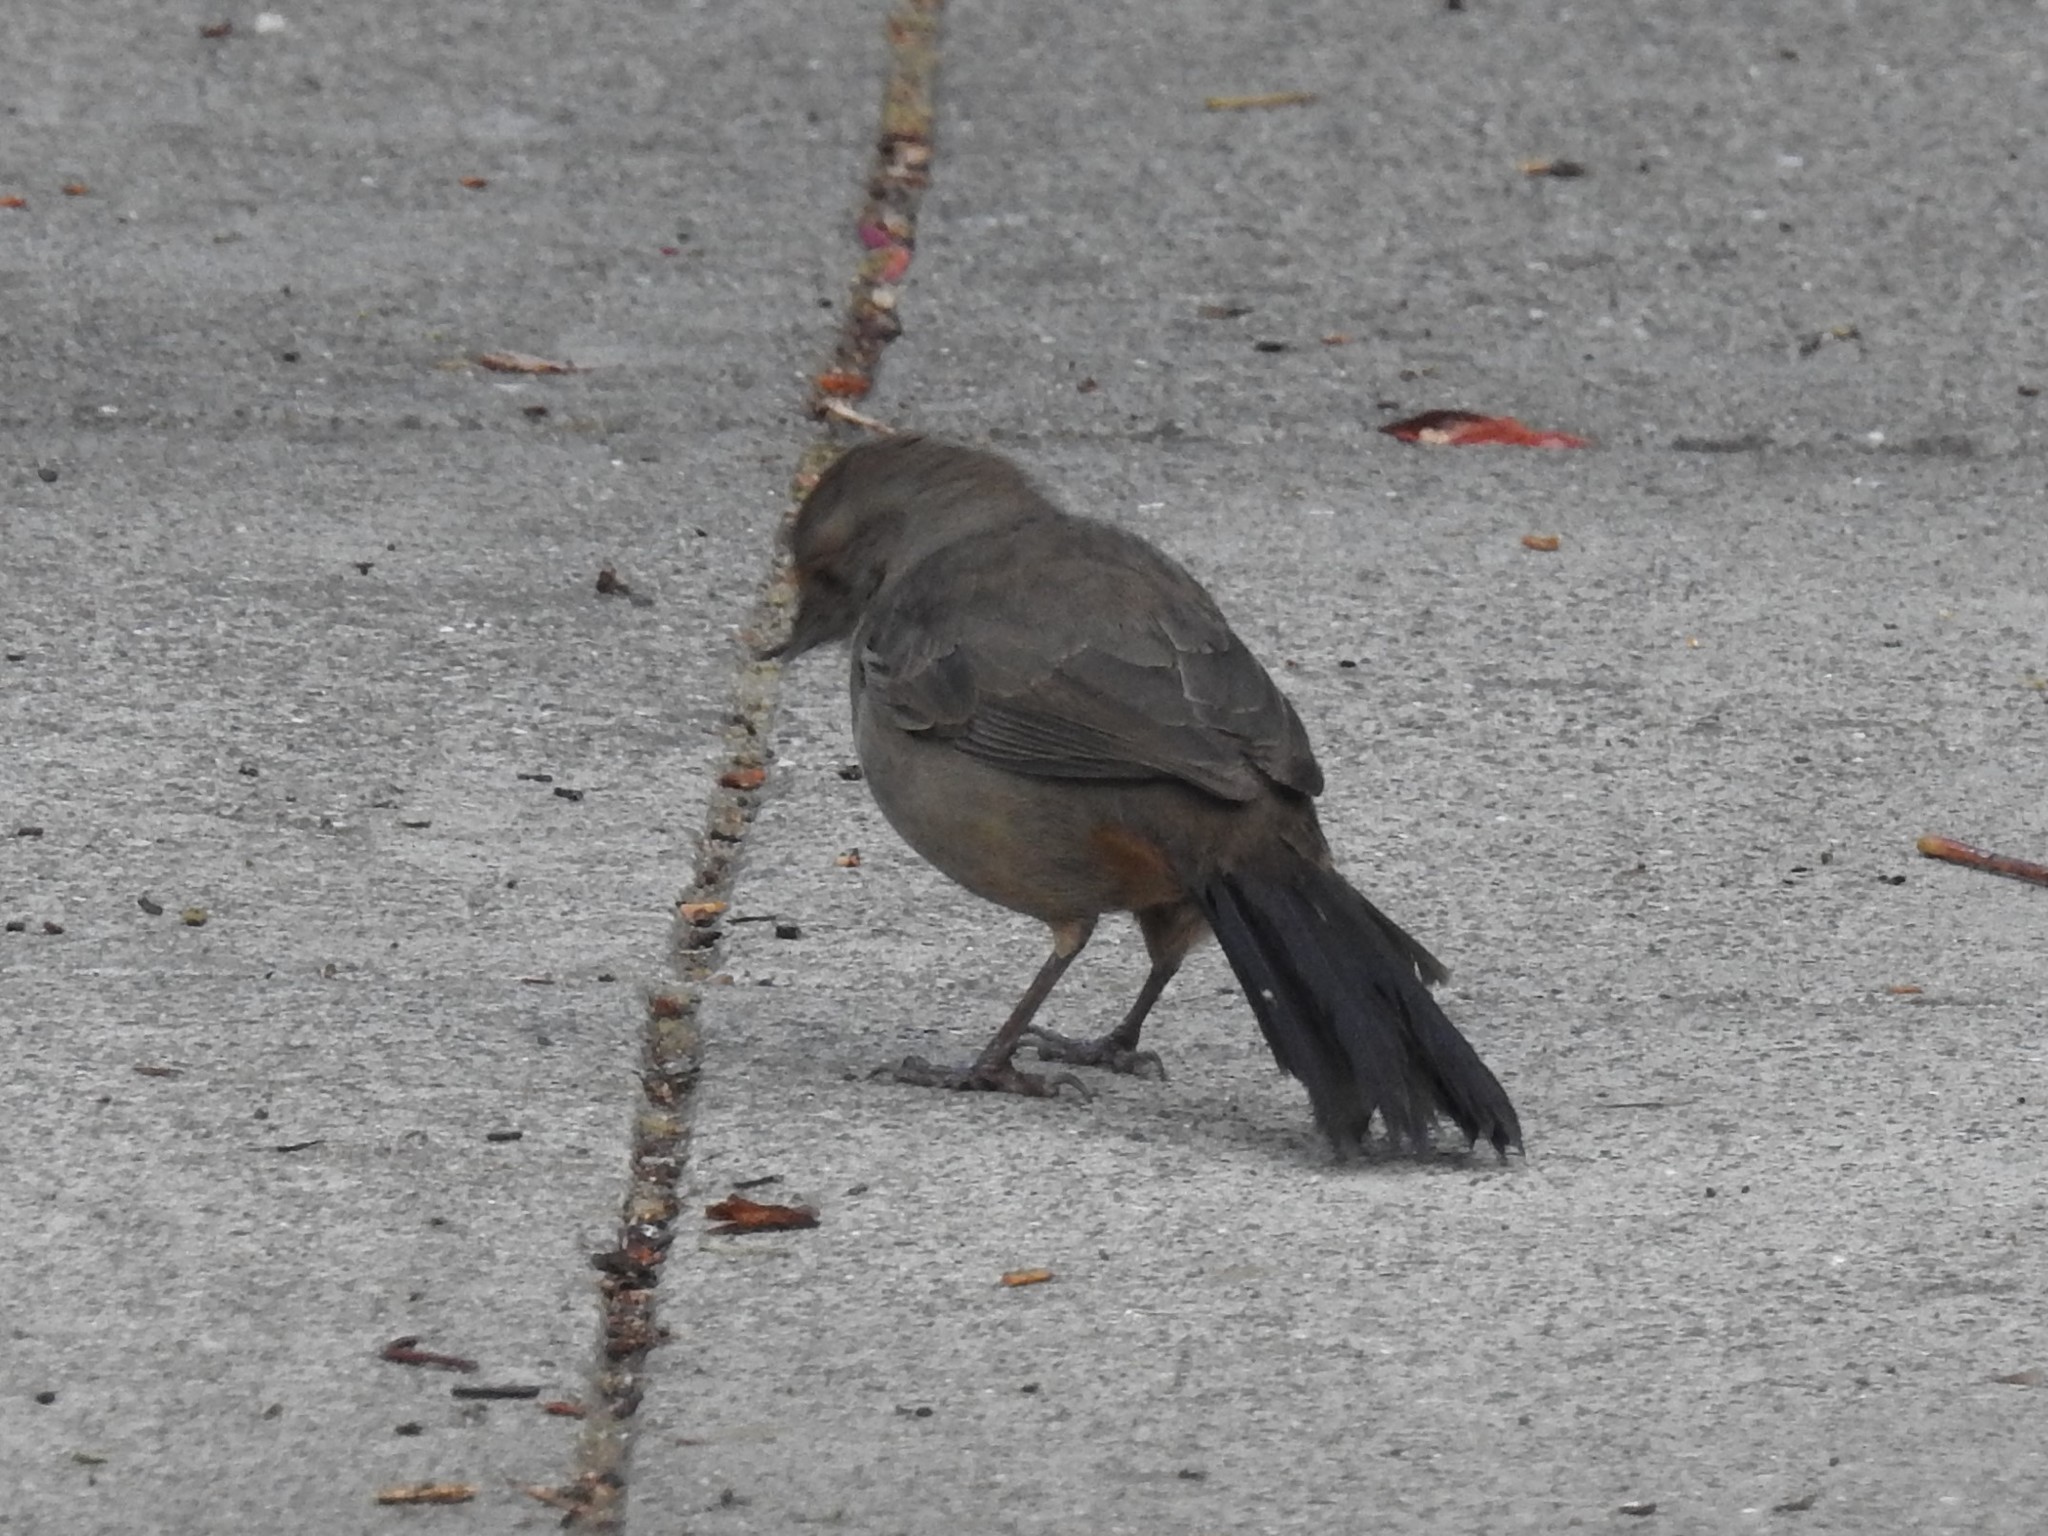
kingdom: Animalia
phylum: Chordata
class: Aves
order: Passeriformes
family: Passerellidae
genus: Melozone
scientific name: Melozone crissalis
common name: California towhee
